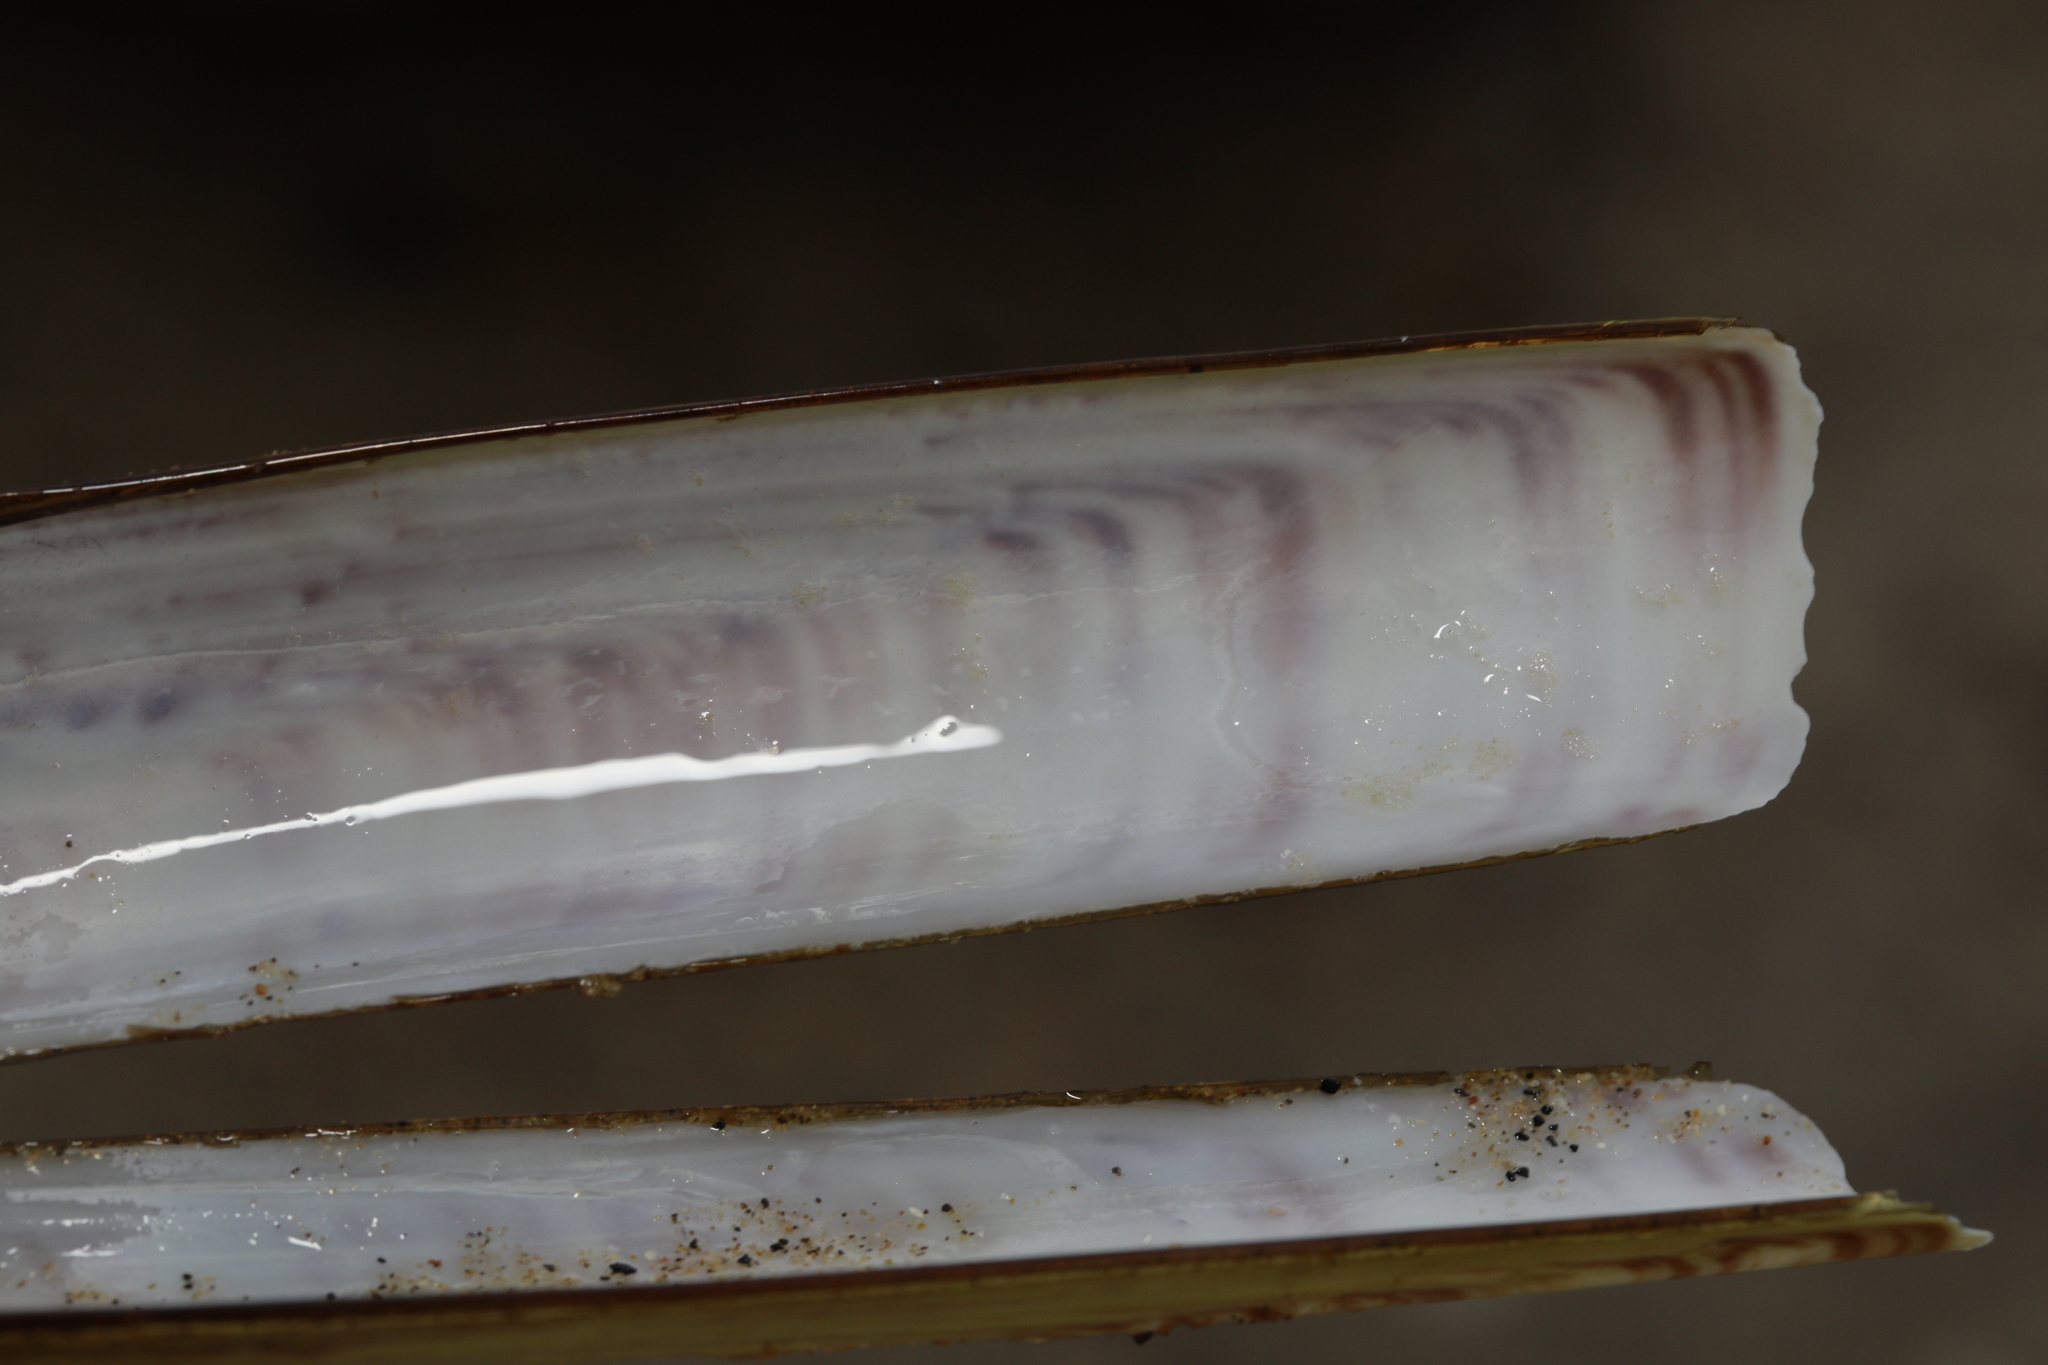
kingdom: Animalia
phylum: Mollusca
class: Bivalvia
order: Adapedonta
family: Pharidae
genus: Ensis
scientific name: Ensis leei
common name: American jack knife clam
